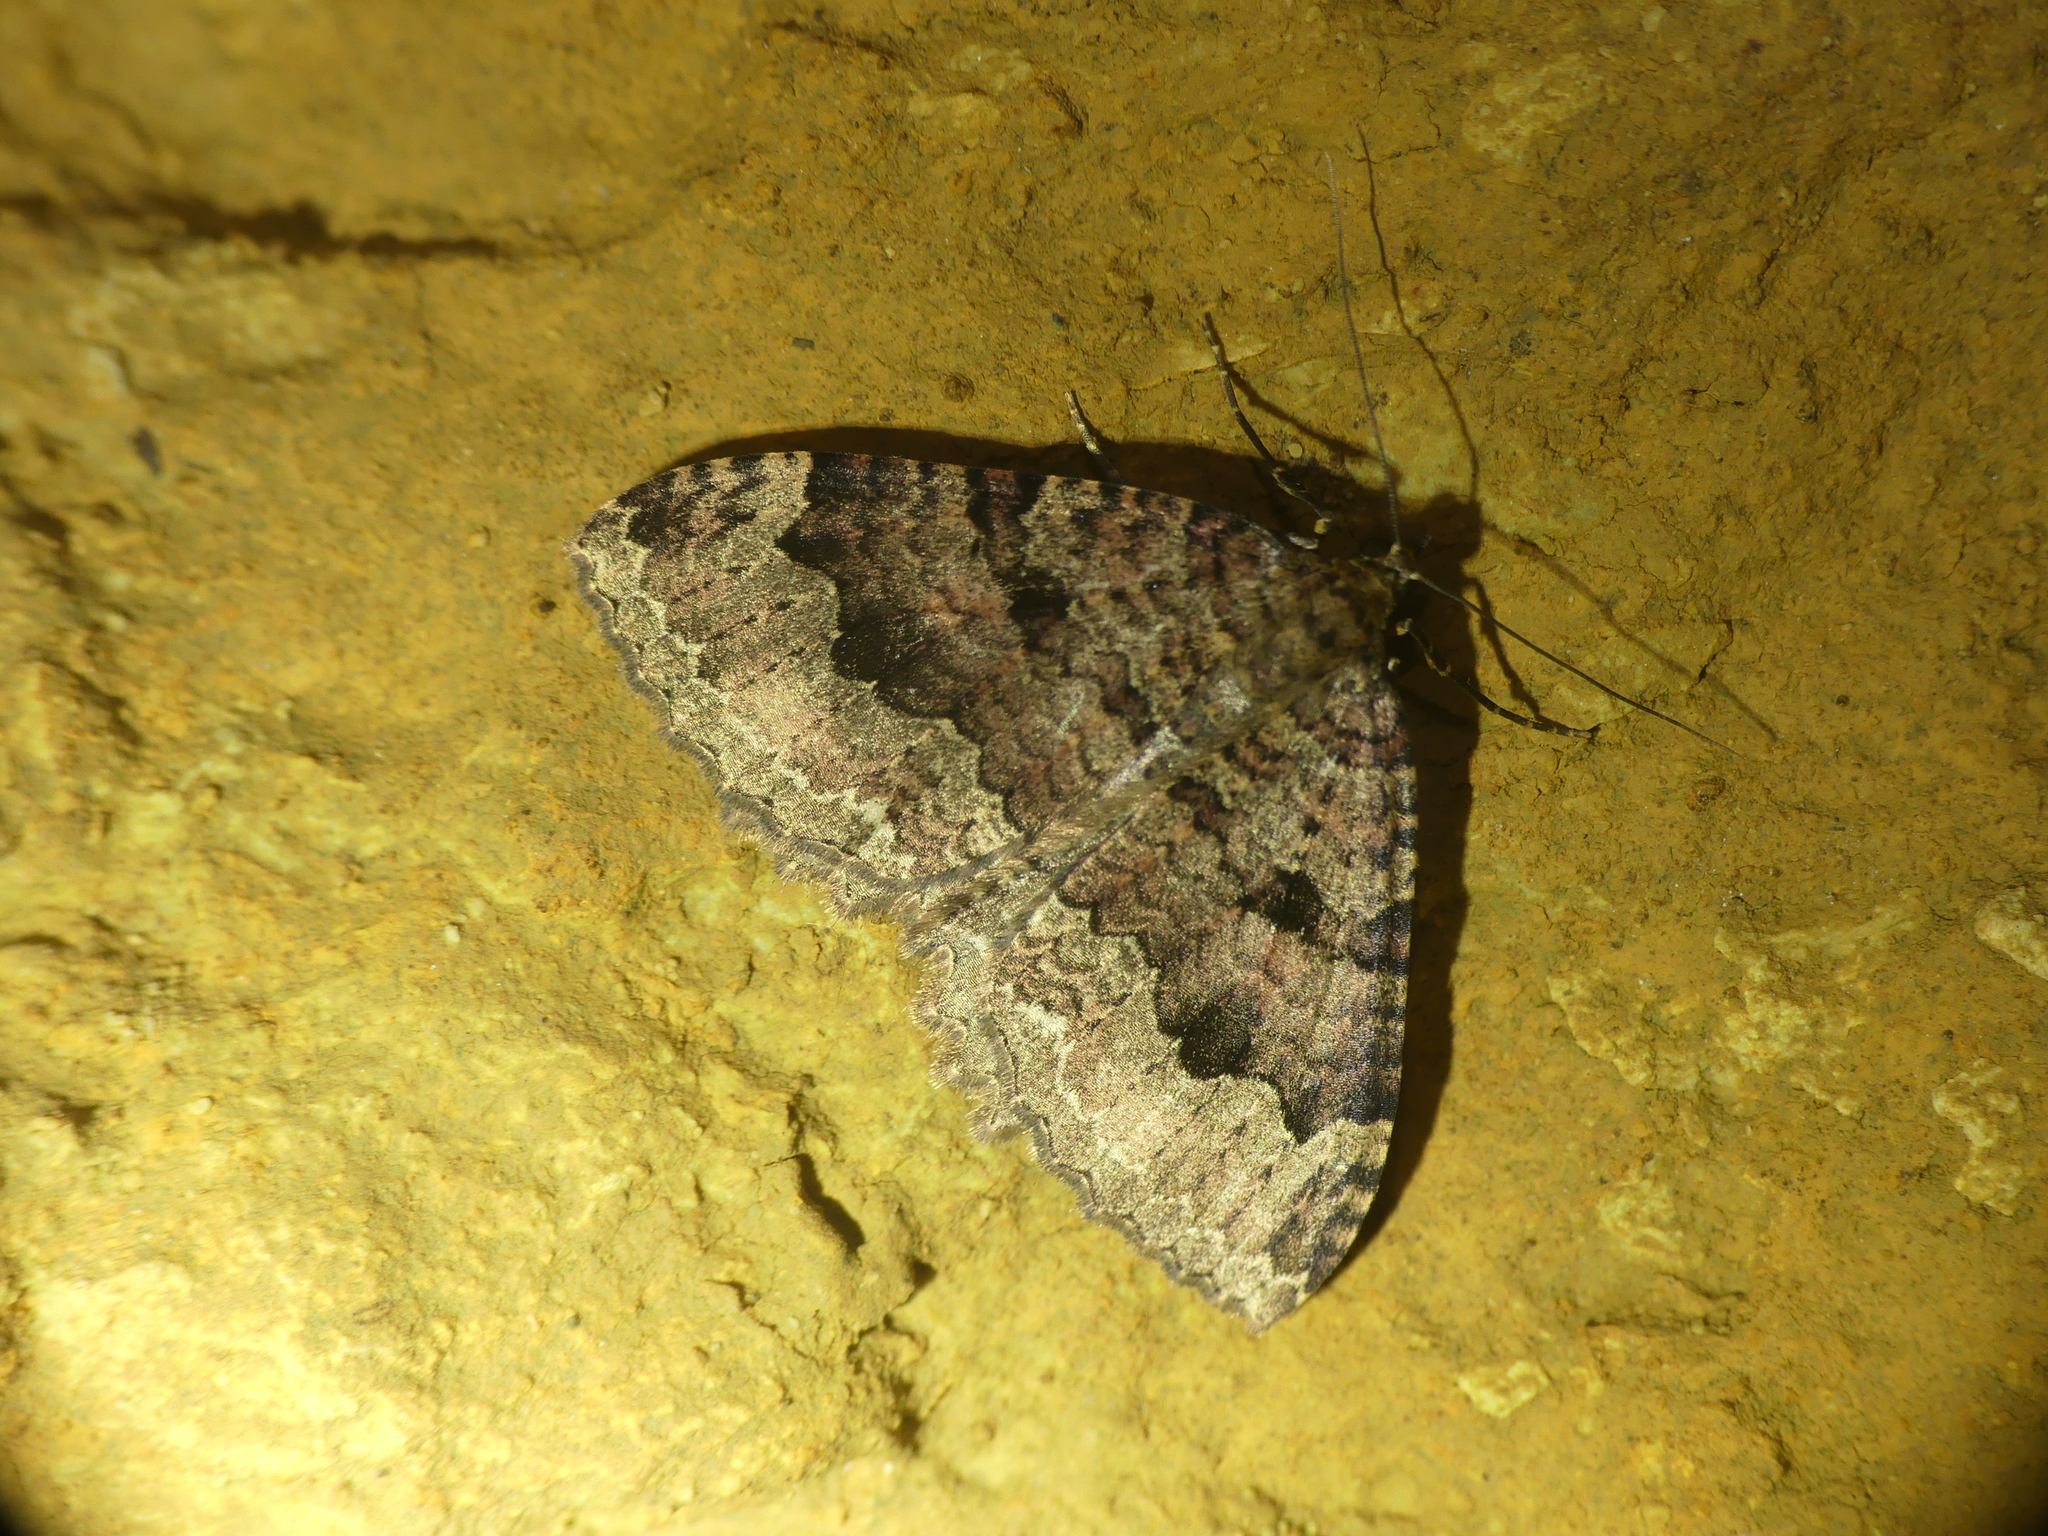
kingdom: Animalia
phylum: Arthropoda
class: Insecta
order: Lepidoptera
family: Geometridae
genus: Triphosa
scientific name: Triphosa dubitata
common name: Tissue
